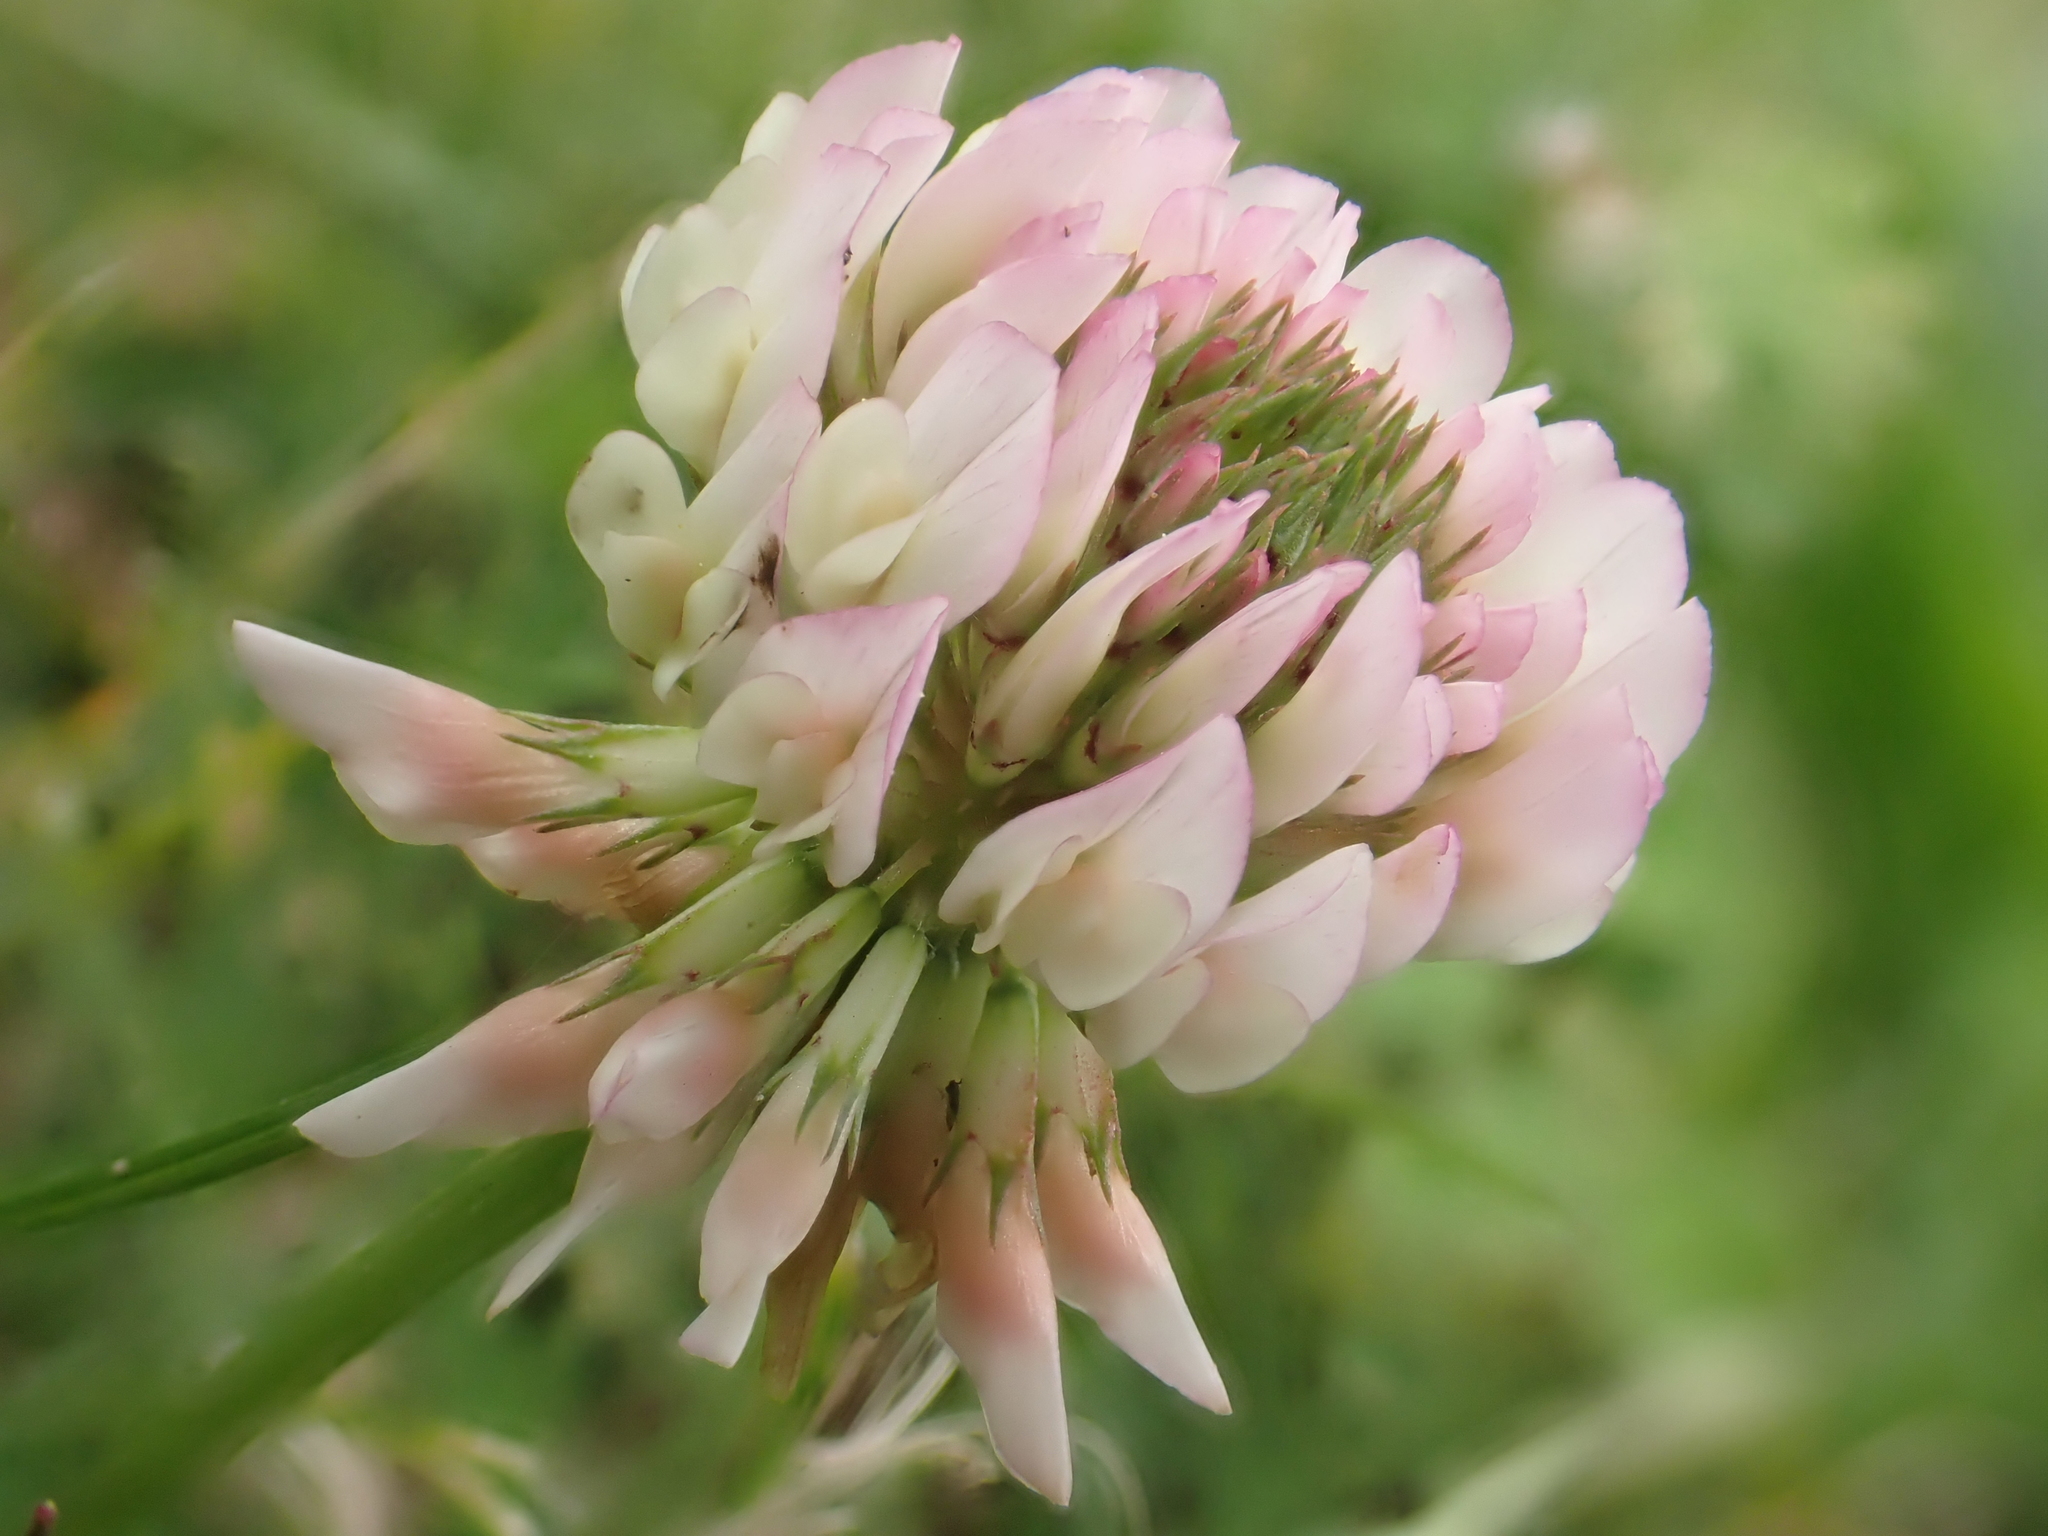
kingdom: Plantae
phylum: Tracheophyta
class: Magnoliopsida
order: Fabales
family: Fabaceae
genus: Trifolium
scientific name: Trifolium repens
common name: White clover
